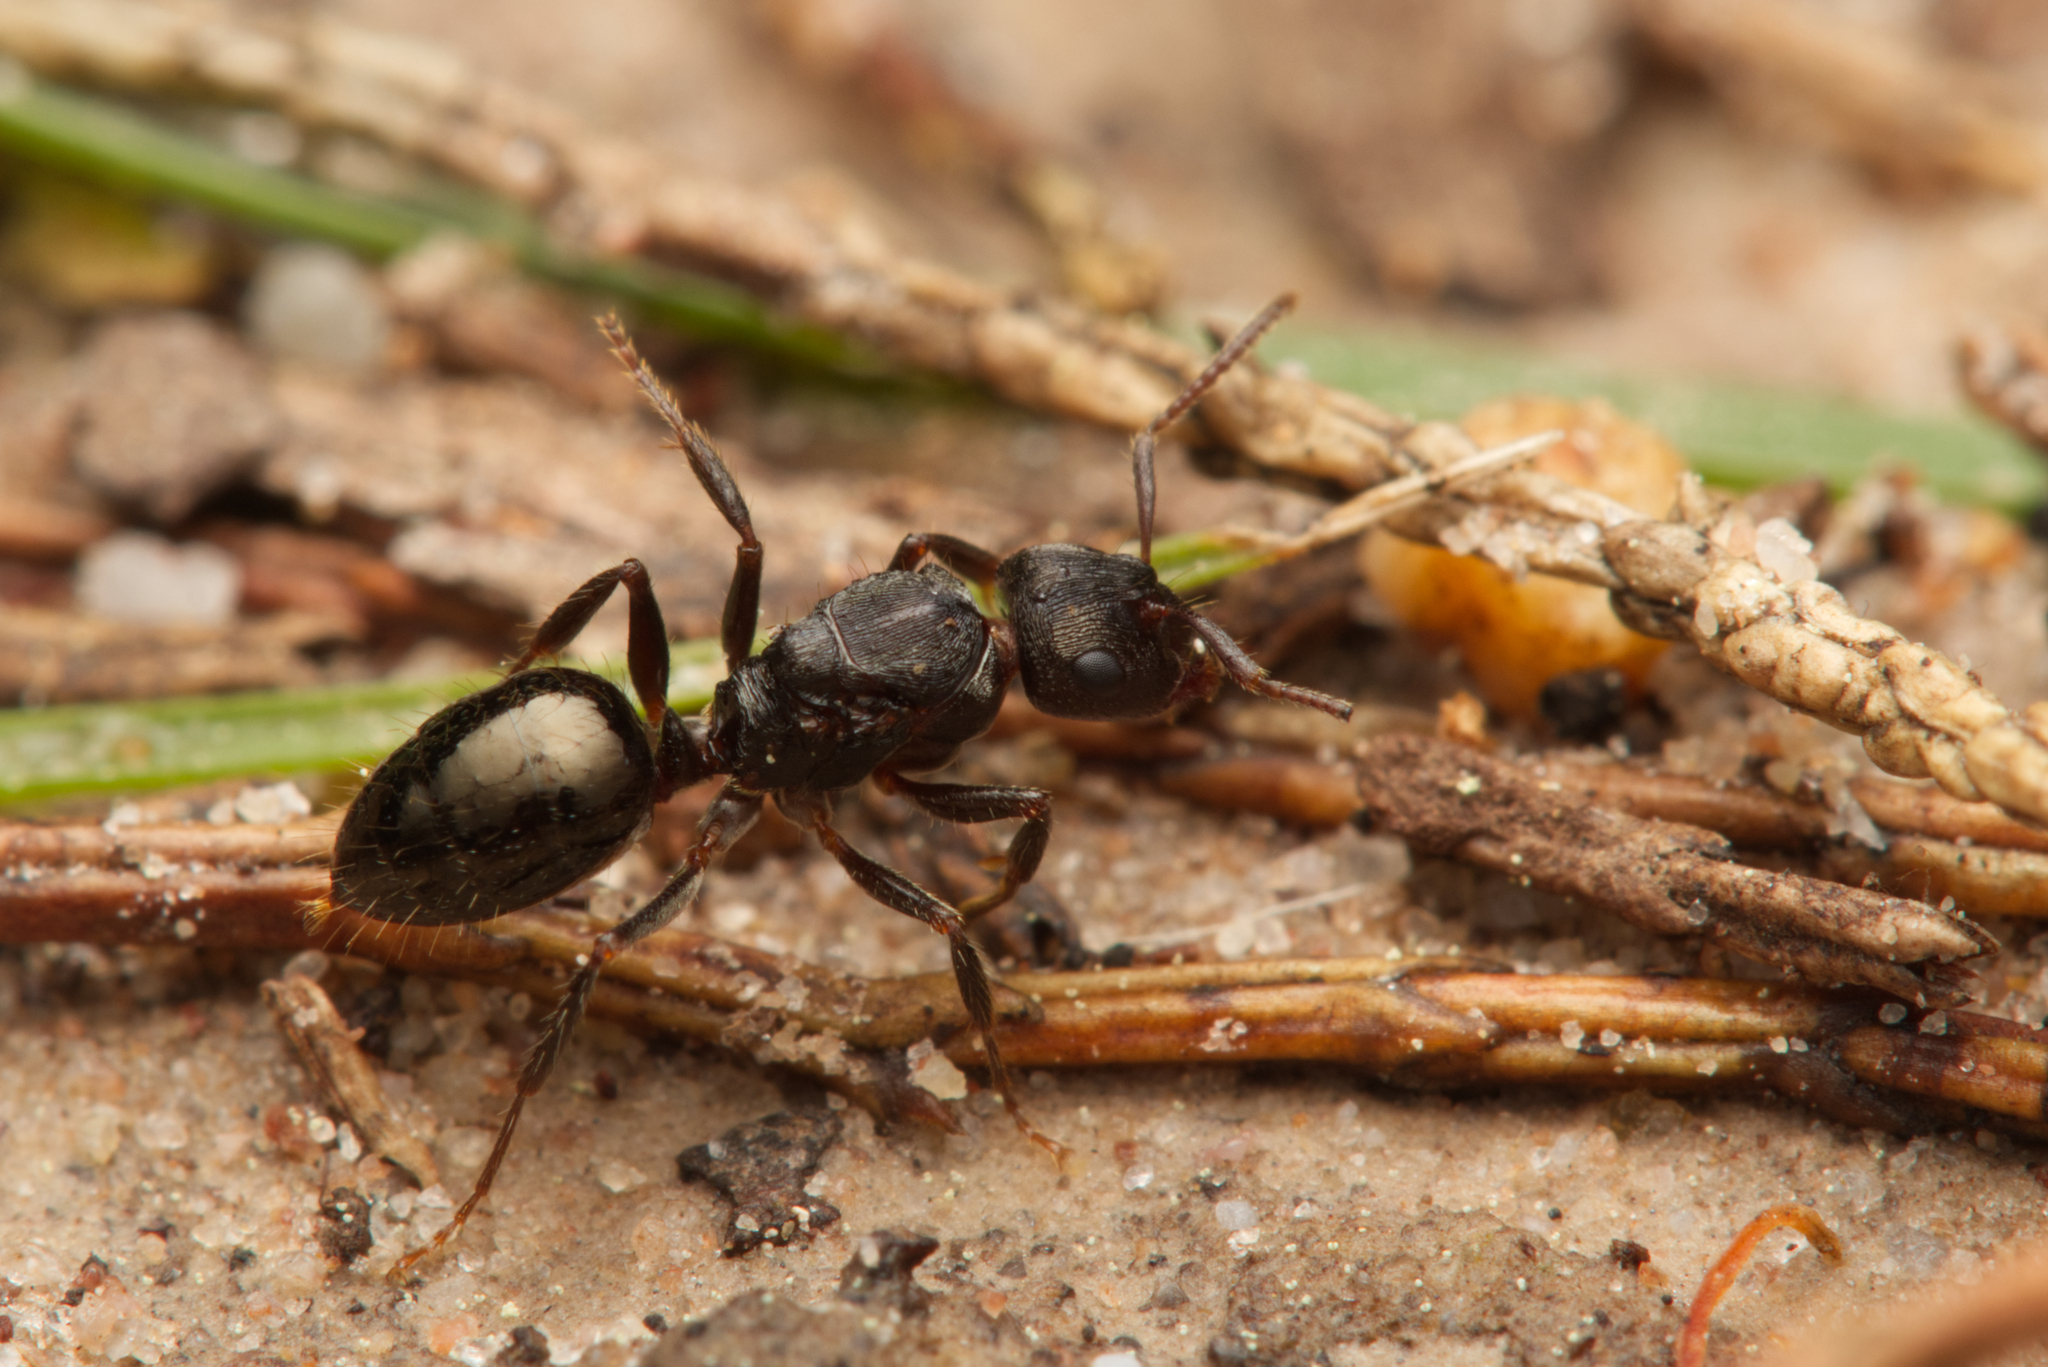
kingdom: Animalia
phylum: Arthropoda
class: Insecta
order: Hymenoptera
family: Formicidae
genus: Notoncus
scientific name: Notoncus ectatommoides
